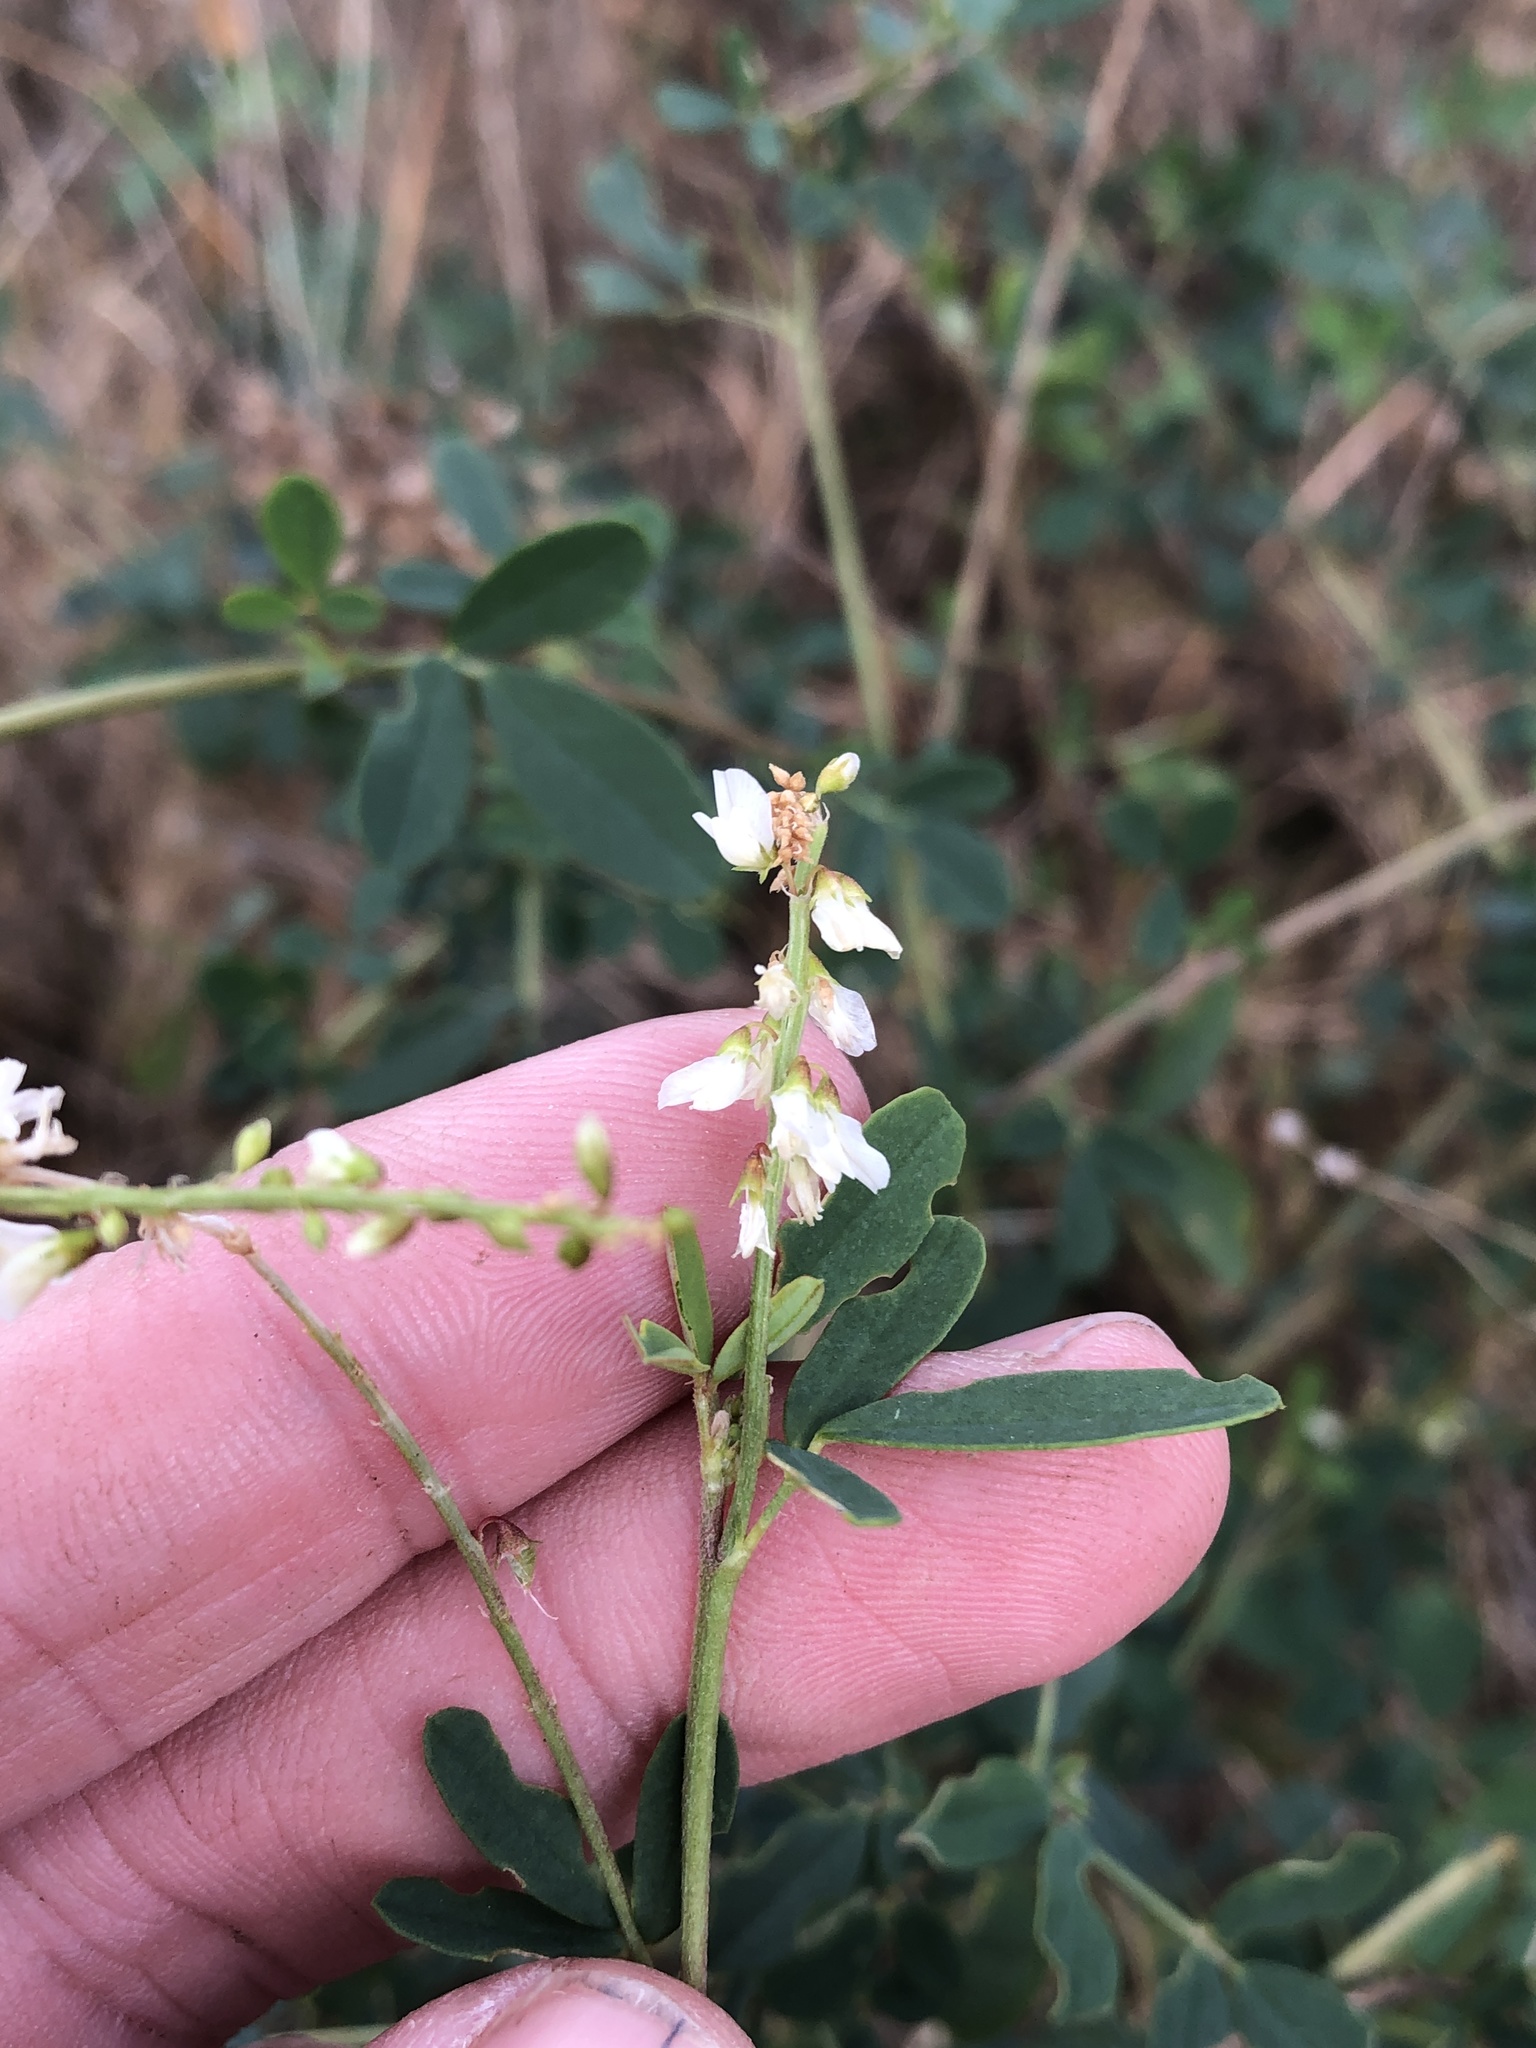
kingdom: Plantae
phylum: Tracheophyta
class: Magnoliopsida
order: Fabales
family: Fabaceae
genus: Melilotus
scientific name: Melilotus albus
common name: White melilot
